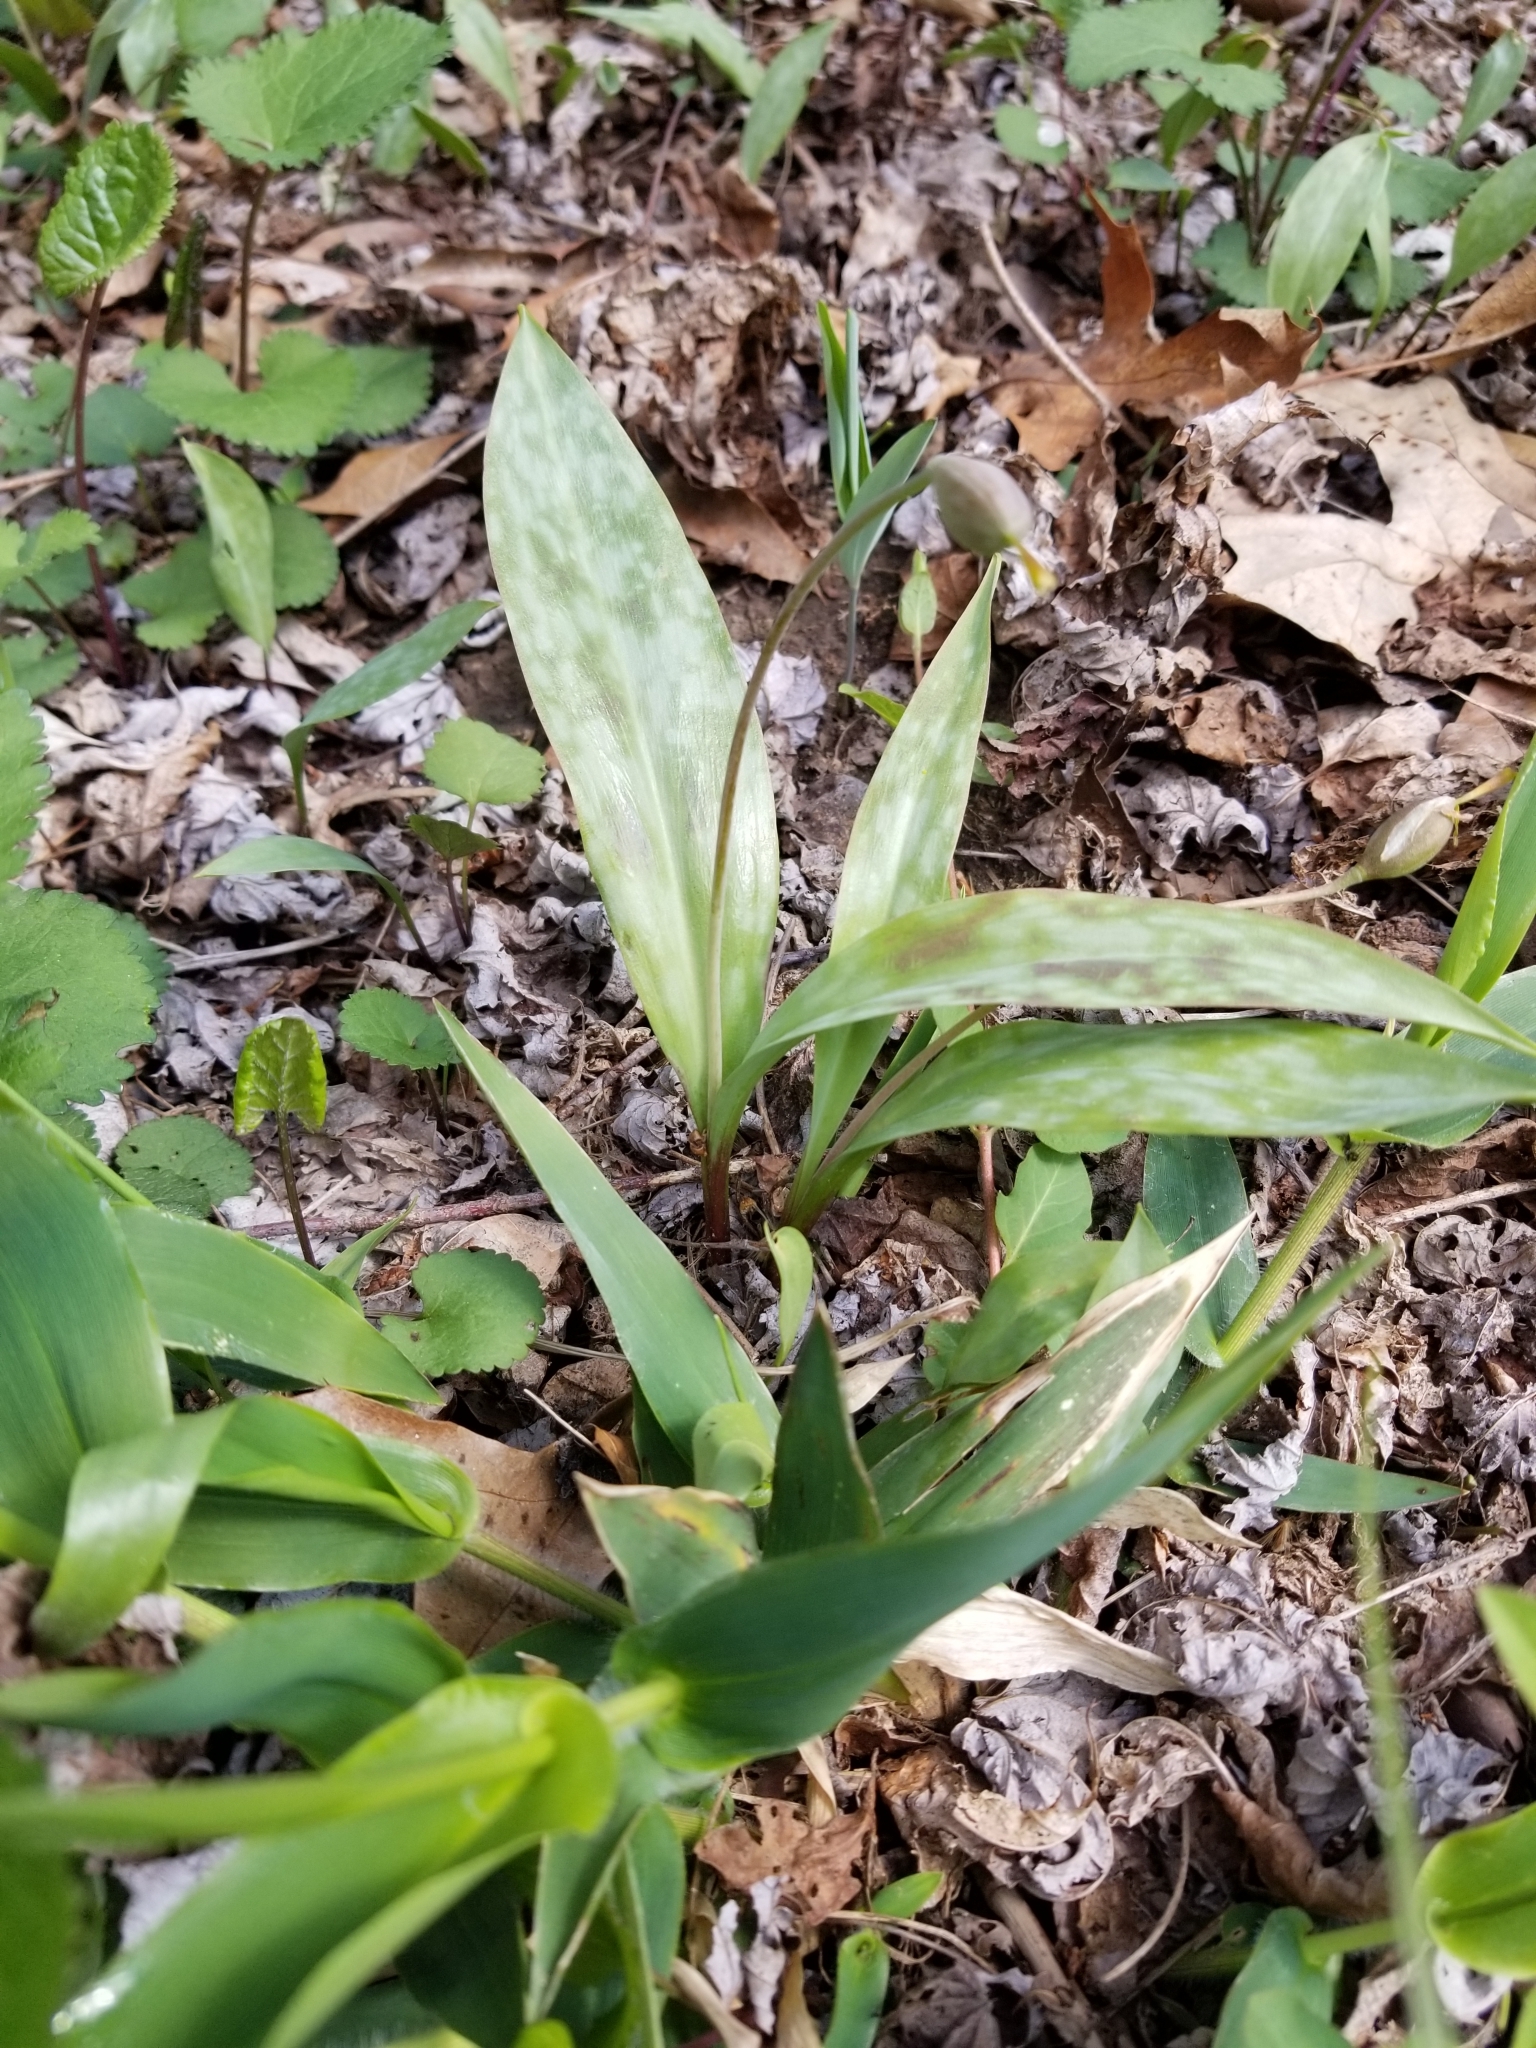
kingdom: Plantae
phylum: Tracheophyta
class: Liliopsida
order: Liliales
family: Liliaceae
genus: Erythronium
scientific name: Erythronium americanum
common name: Yellow adder's-tongue
